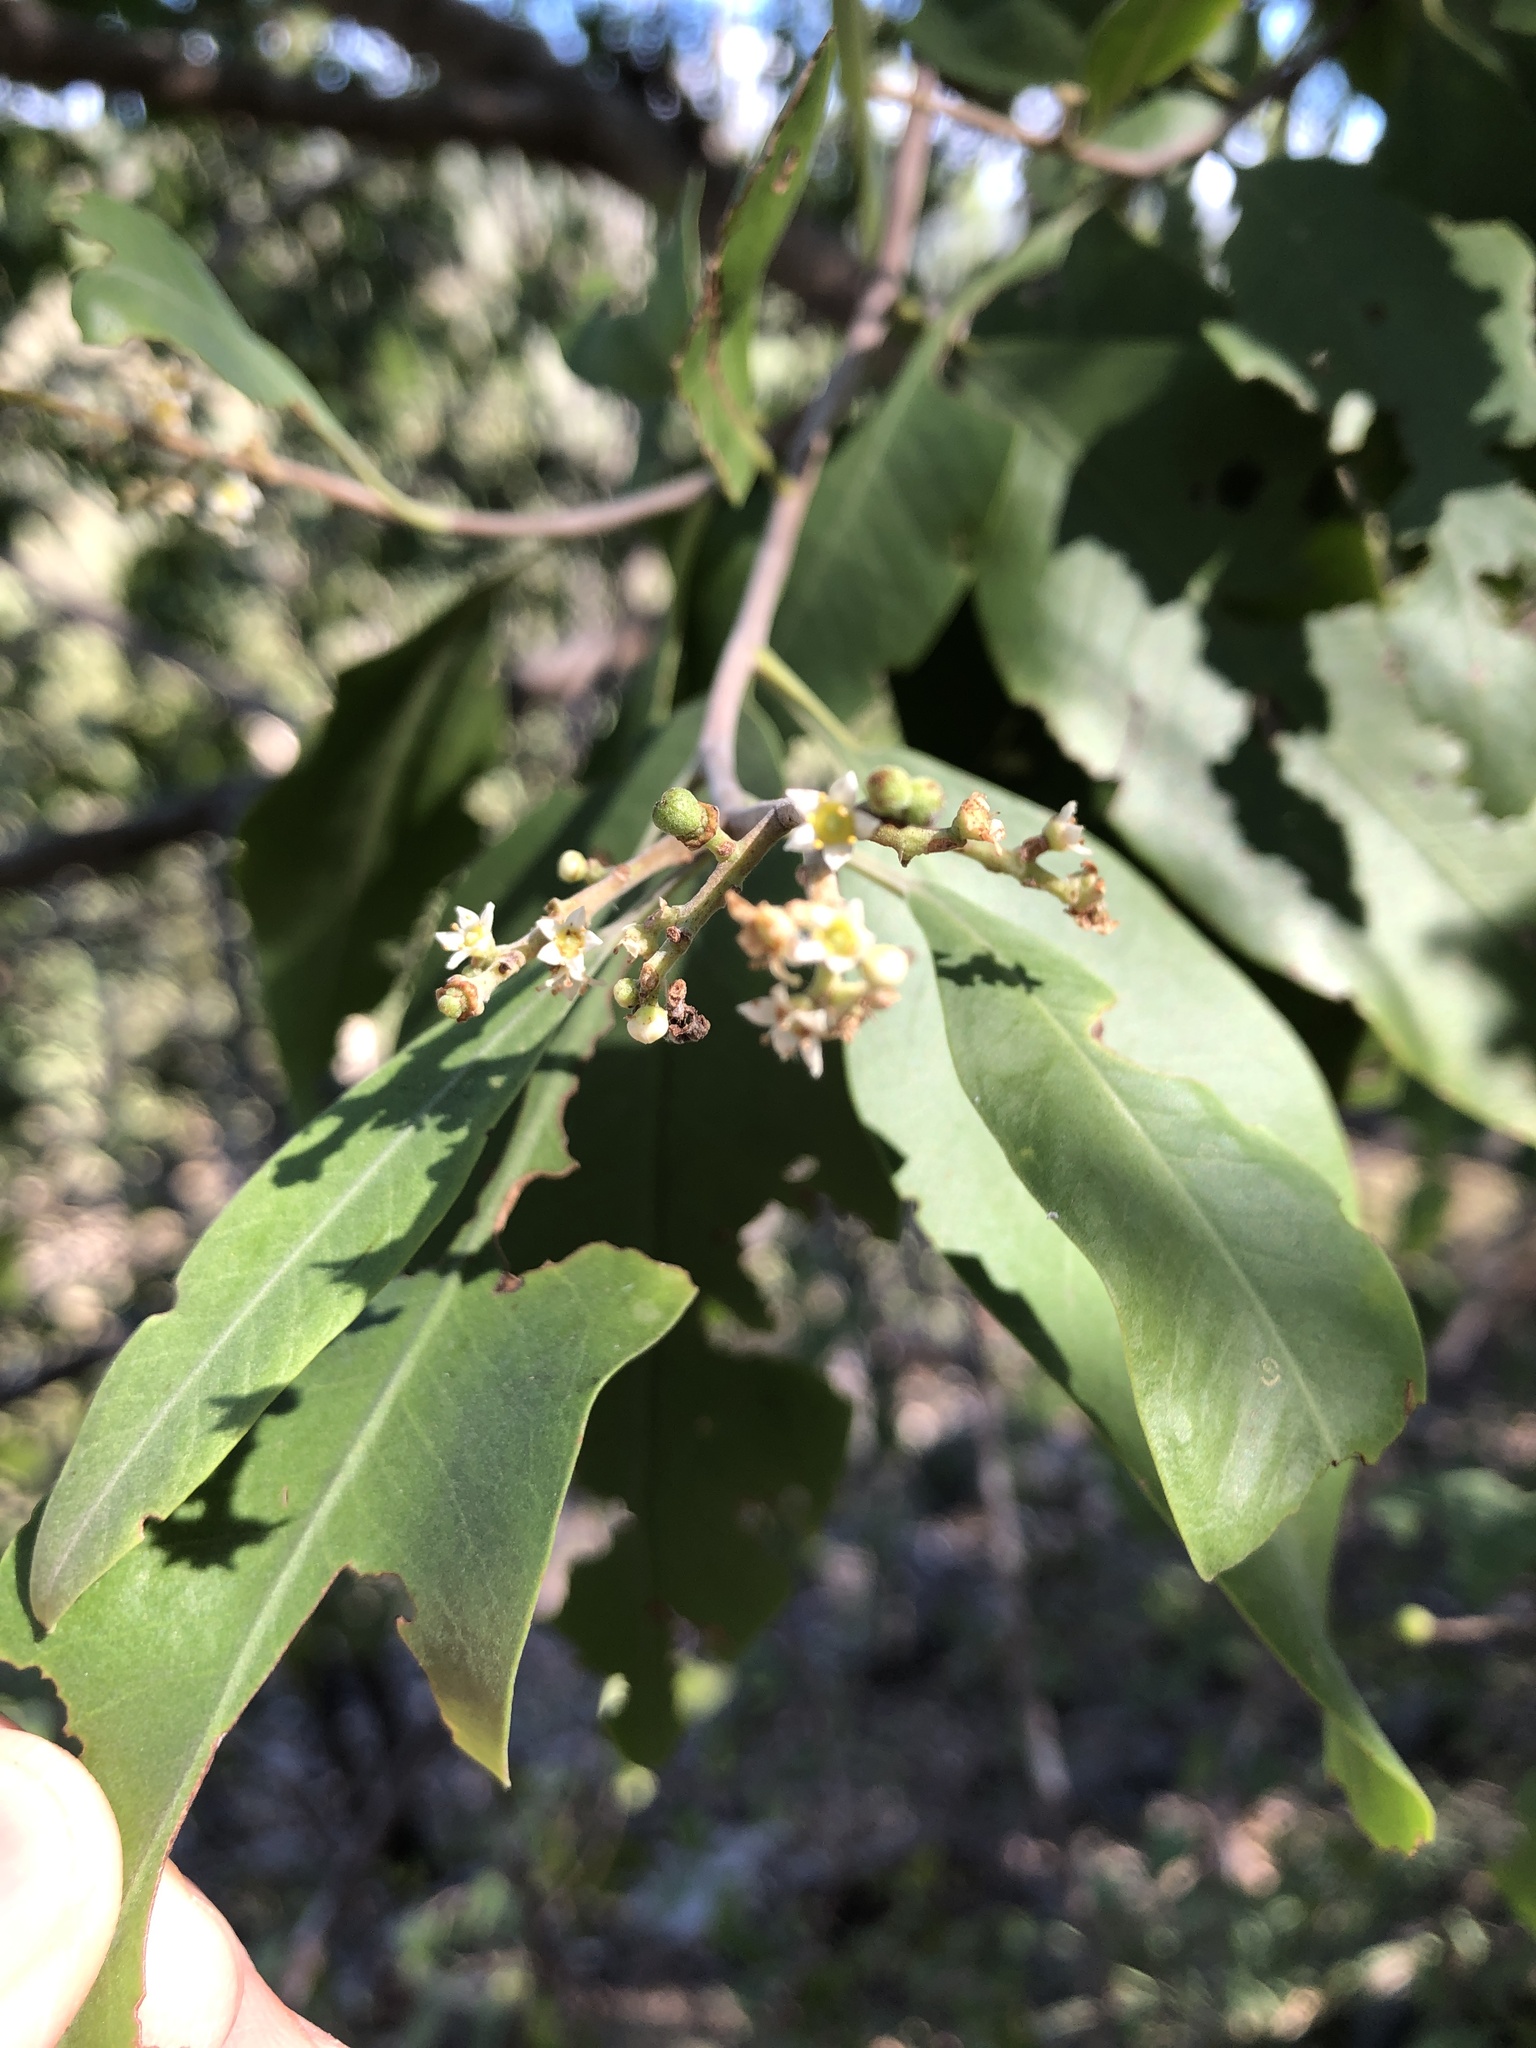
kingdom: Plantae
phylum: Tracheophyta
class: Magnoliopsida
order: Sapindales
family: Rutaceae
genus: Geijera
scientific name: Geijera salicifolia
